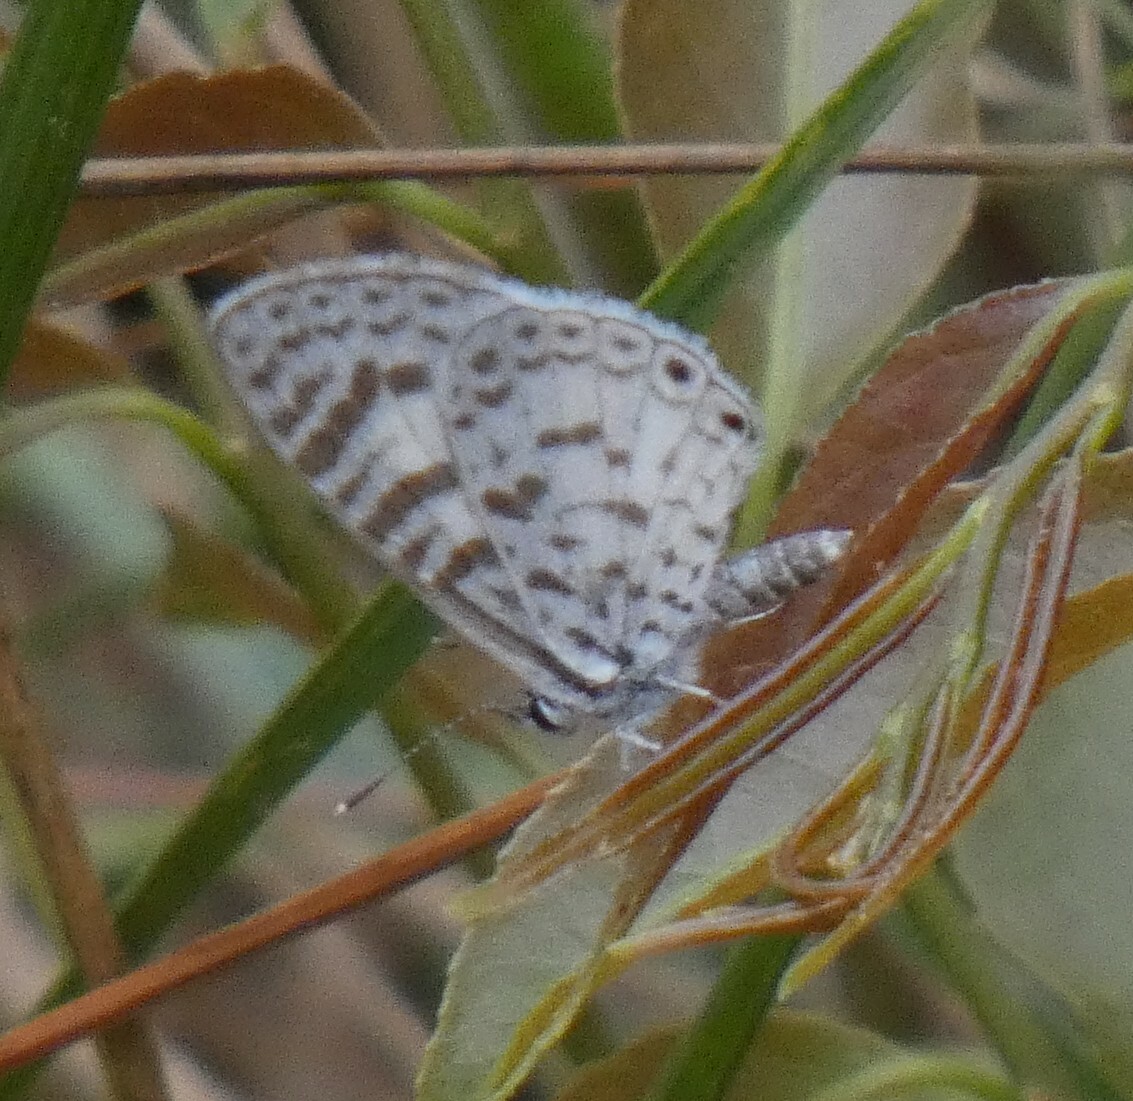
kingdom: Animalia
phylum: Arthropoda
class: Insecta
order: Lepidoptera
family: Lycaenidae
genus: Leptotes
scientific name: Leptotes cassius
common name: Cassius blue
